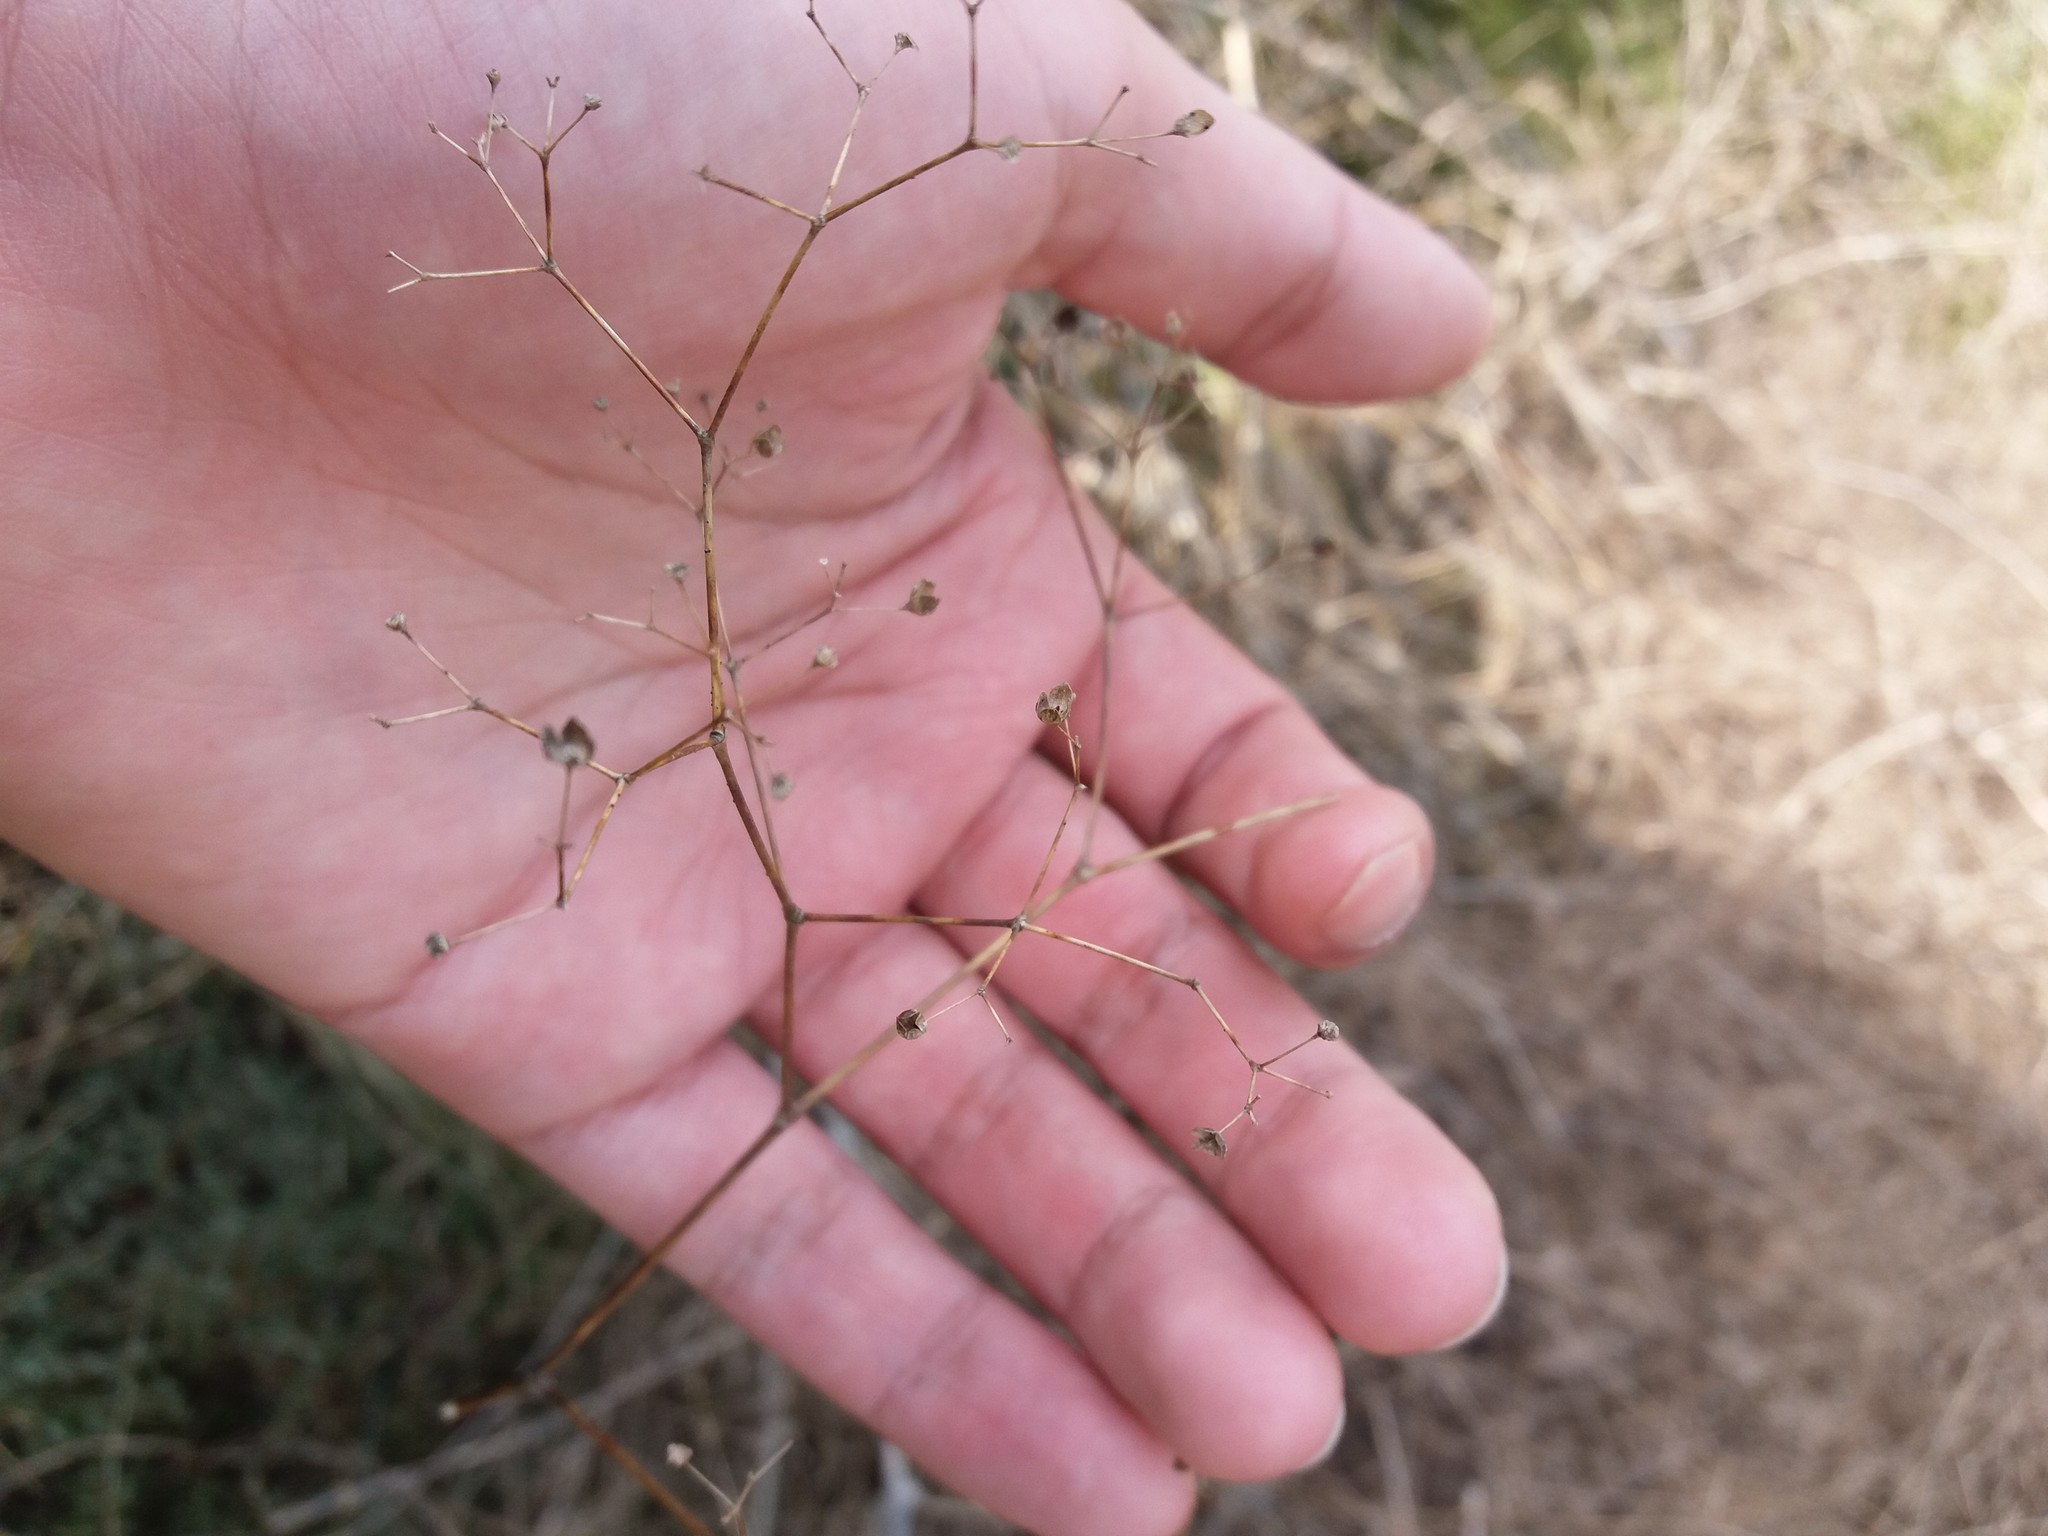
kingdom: Plantae
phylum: Tracheophyta
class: Magnoliopsida
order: Caryophyllales
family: Caryophyllaceae
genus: Gypsophila
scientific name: Gypsophila paniculata
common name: Baby's-breath
